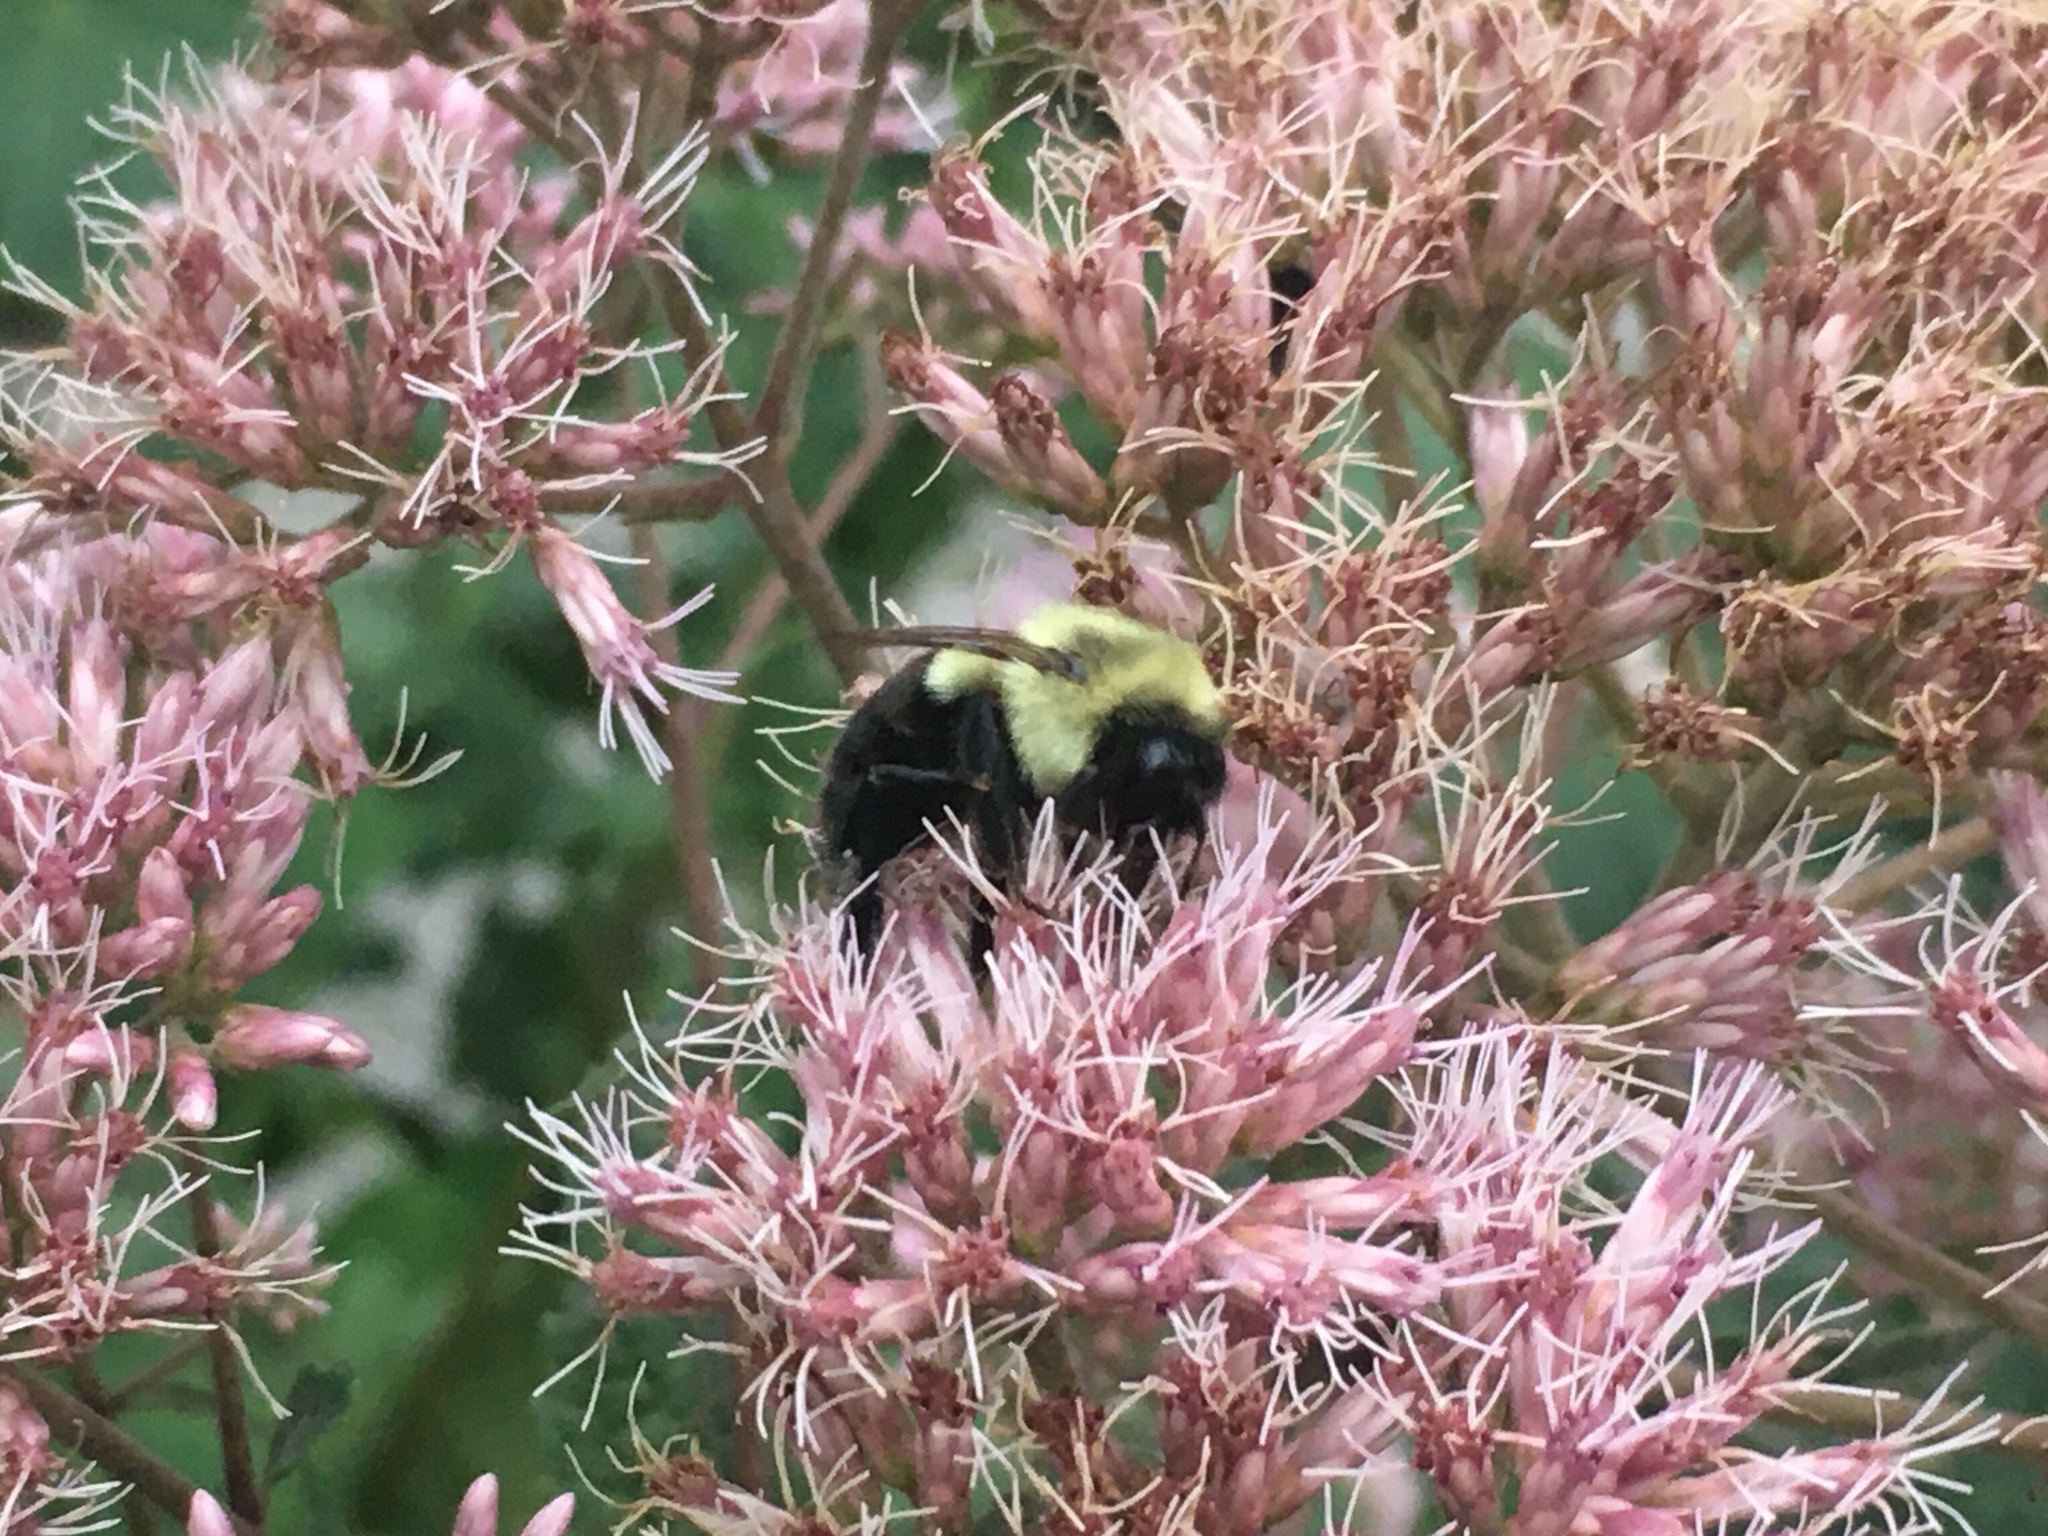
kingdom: Animalia
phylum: Arthropoda
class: Insecta
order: Hymenoptera
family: Apidae
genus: Bombus
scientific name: Bombus impatiens
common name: Common eastern bumble bee
